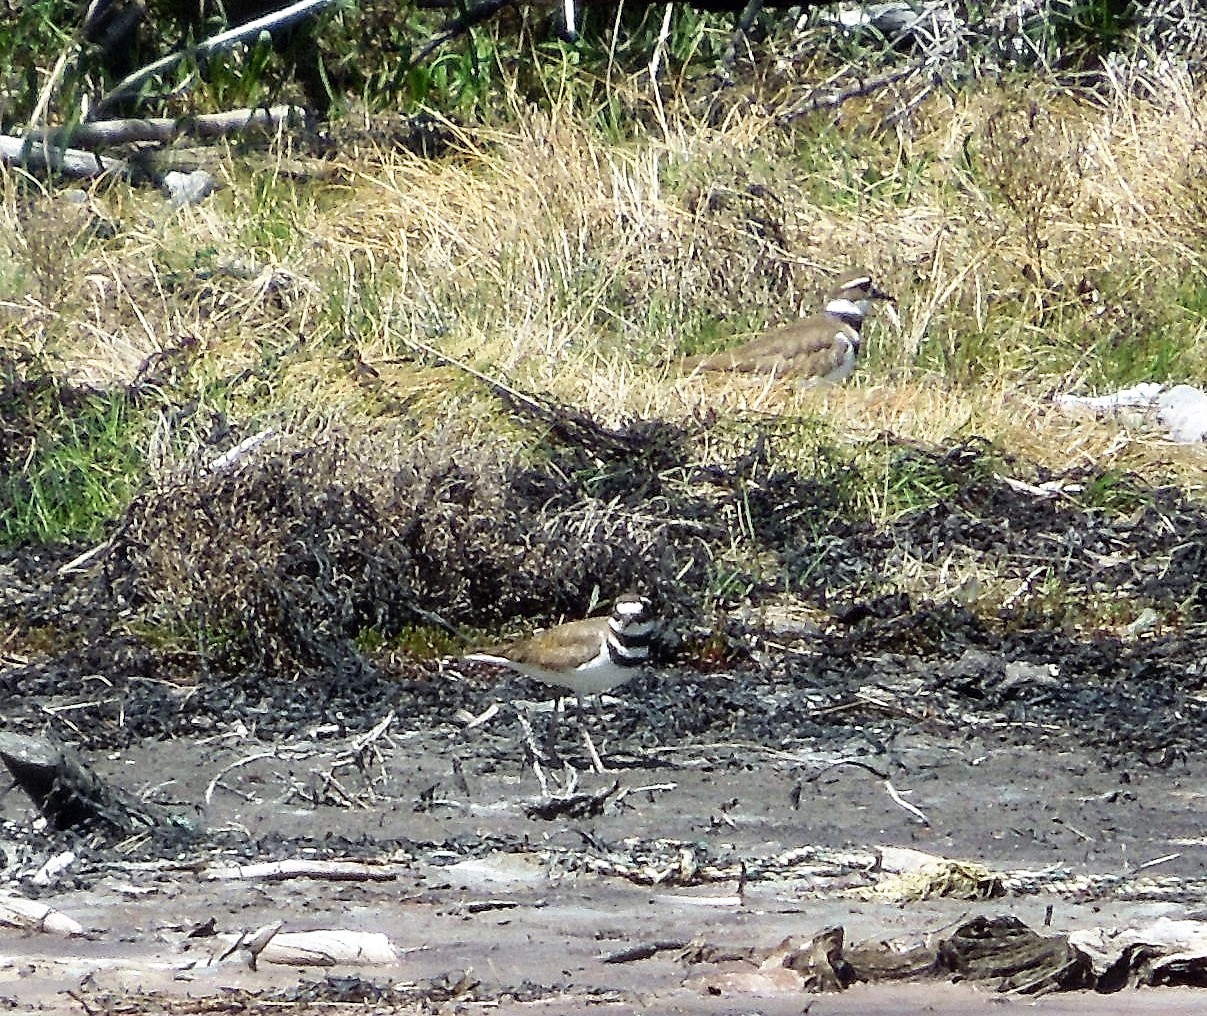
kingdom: Animalia
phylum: Chordata
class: Aves
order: Charadriiformes
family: Charadriidae
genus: Charadrius
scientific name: Charadrius vociferus
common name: Killdeer
